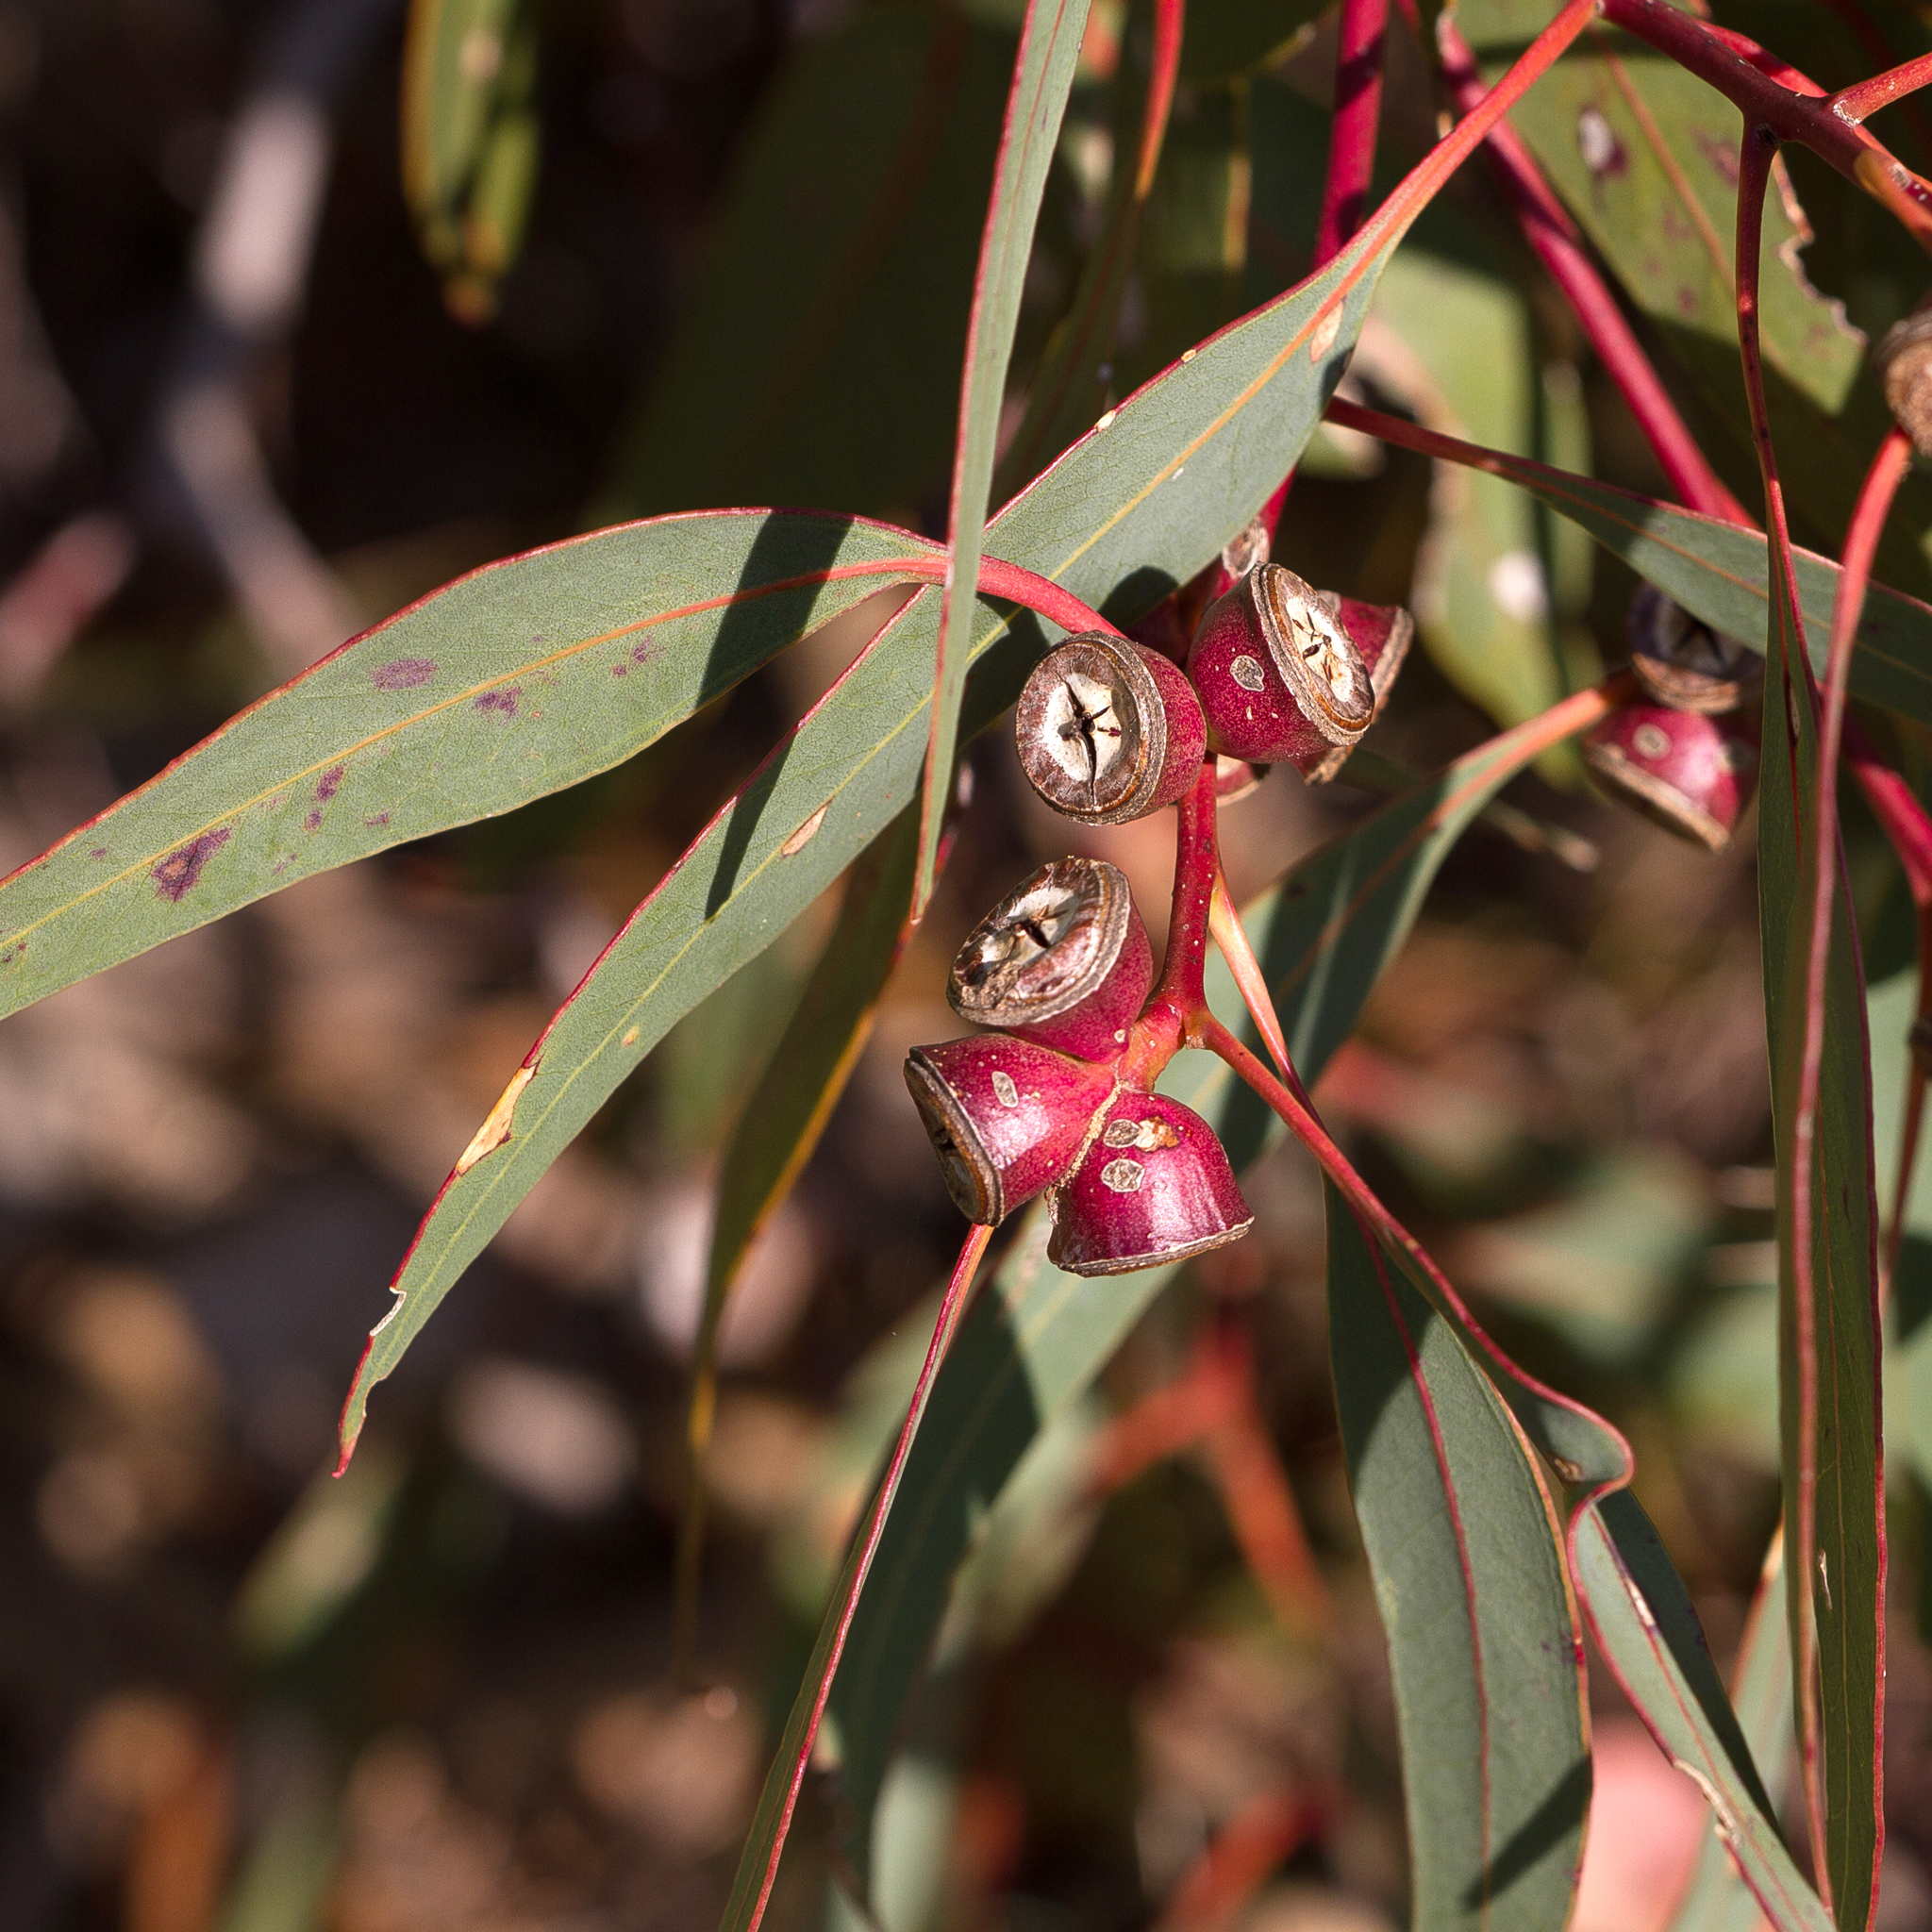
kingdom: Plantae
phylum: Tracheophyta
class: Magnoliopsida
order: Myrtales
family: Myrtaceae
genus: Eucalyptus
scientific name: Eucalyptus cosmophylla
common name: Bog-gum
